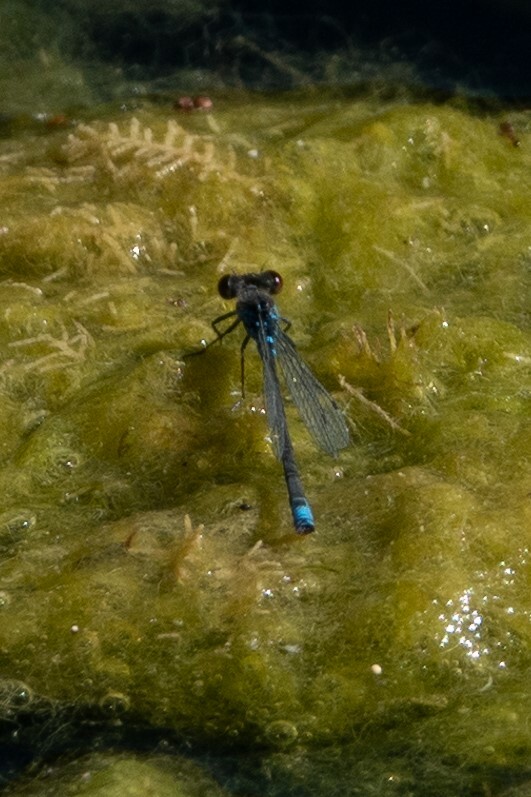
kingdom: Animalia
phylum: Arthropoda
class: Insecta
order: Odonata
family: Coenagrionidae
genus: Erythromma
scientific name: Erythromma viridulum
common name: Small red-eyed damselfly
